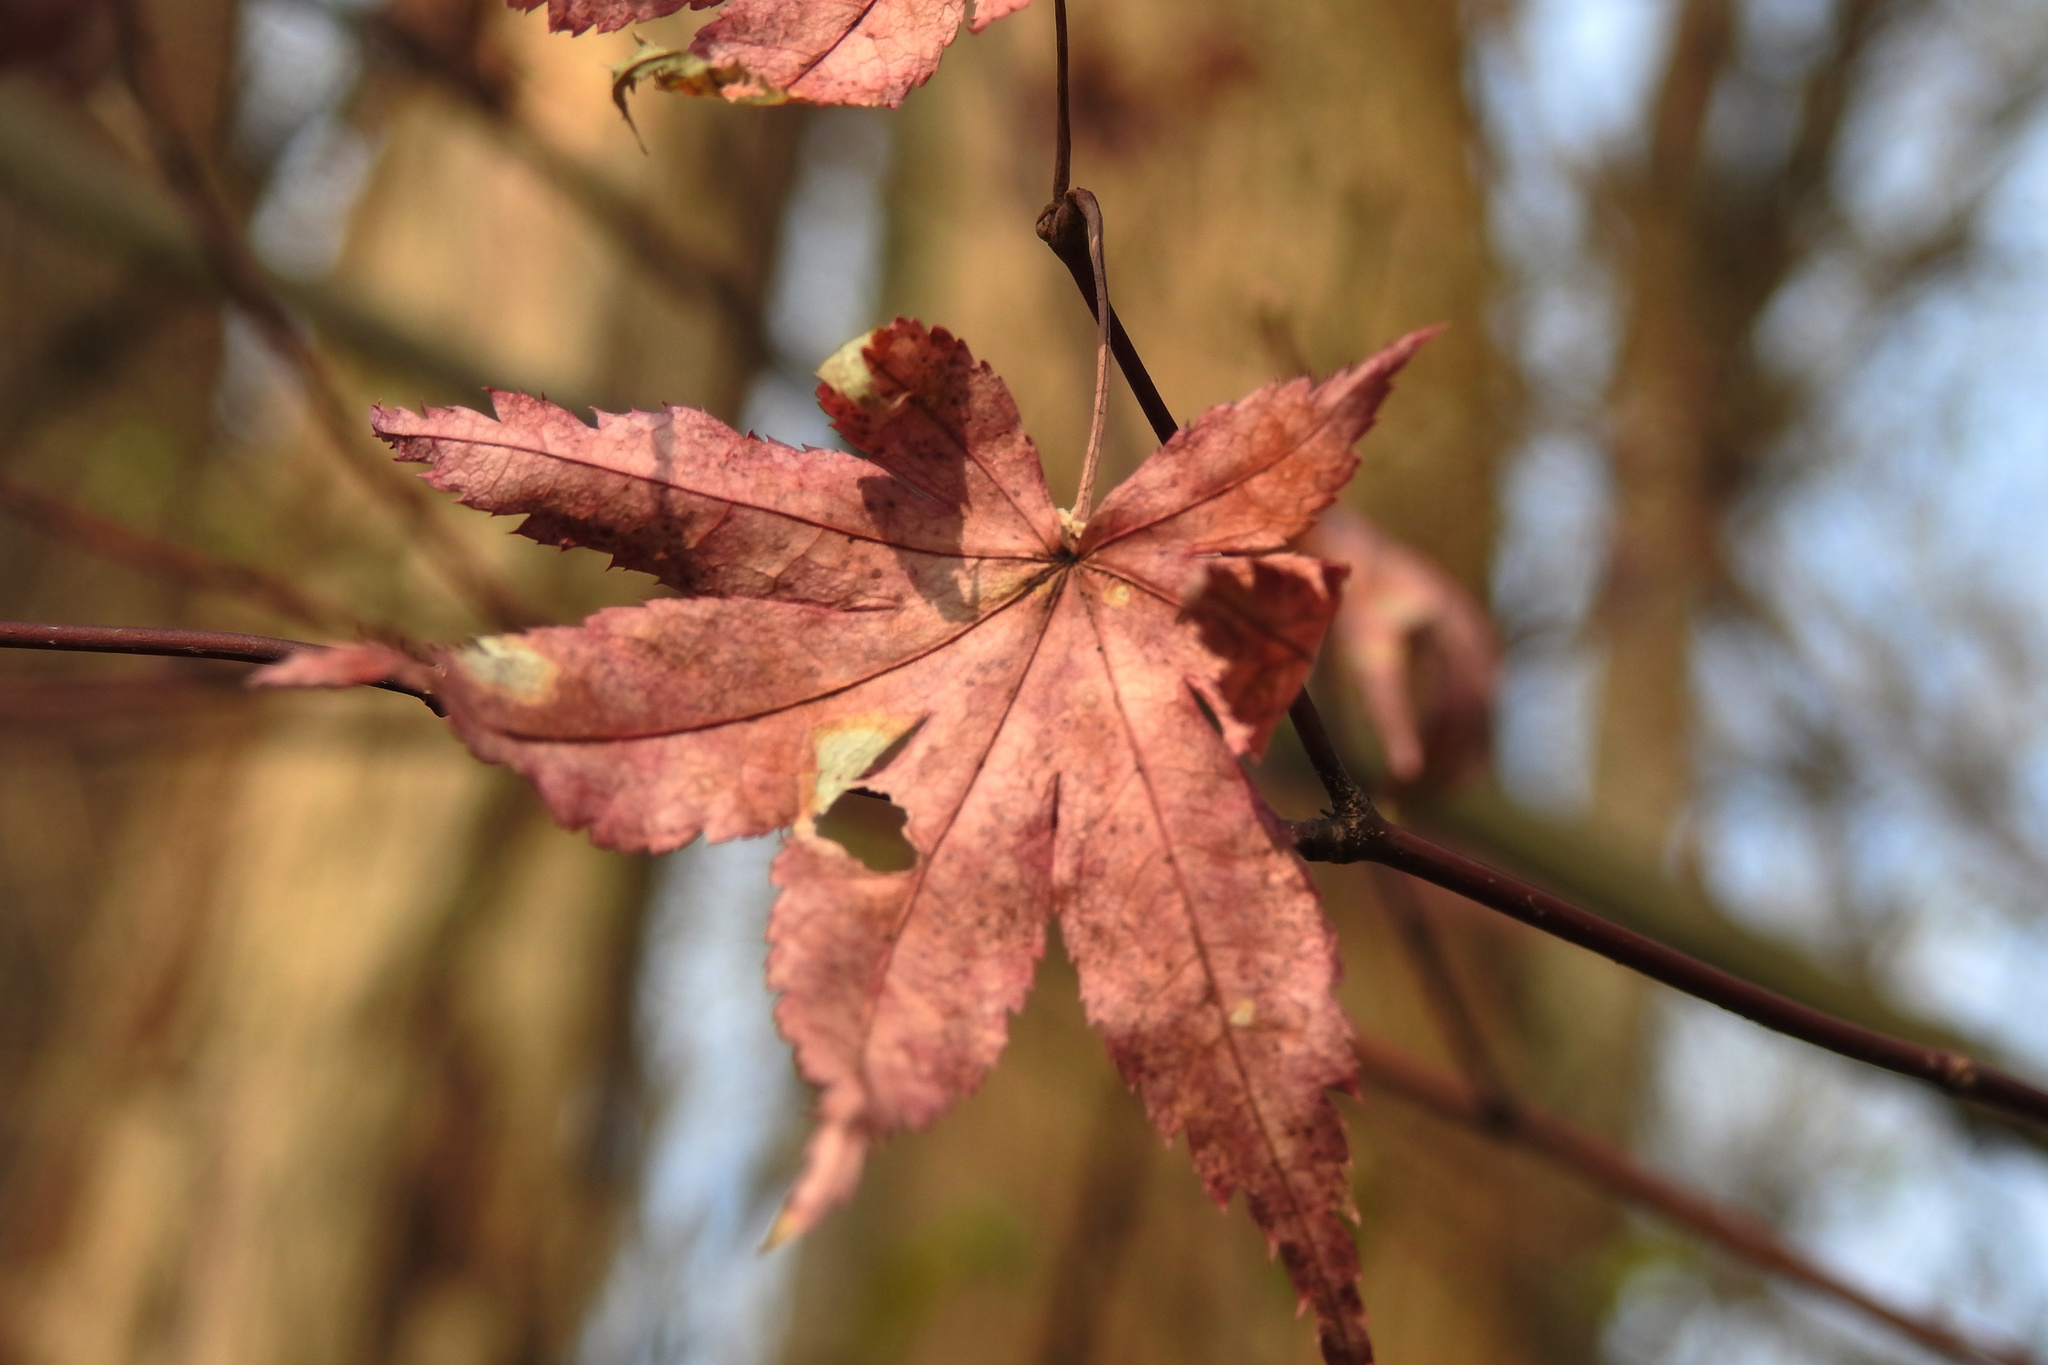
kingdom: Plantae
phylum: Tracheophyta
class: Magnoliopsida
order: Sapindales
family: Sapindaceae
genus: Acer
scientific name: Acer palmatum
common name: Japanese maple
